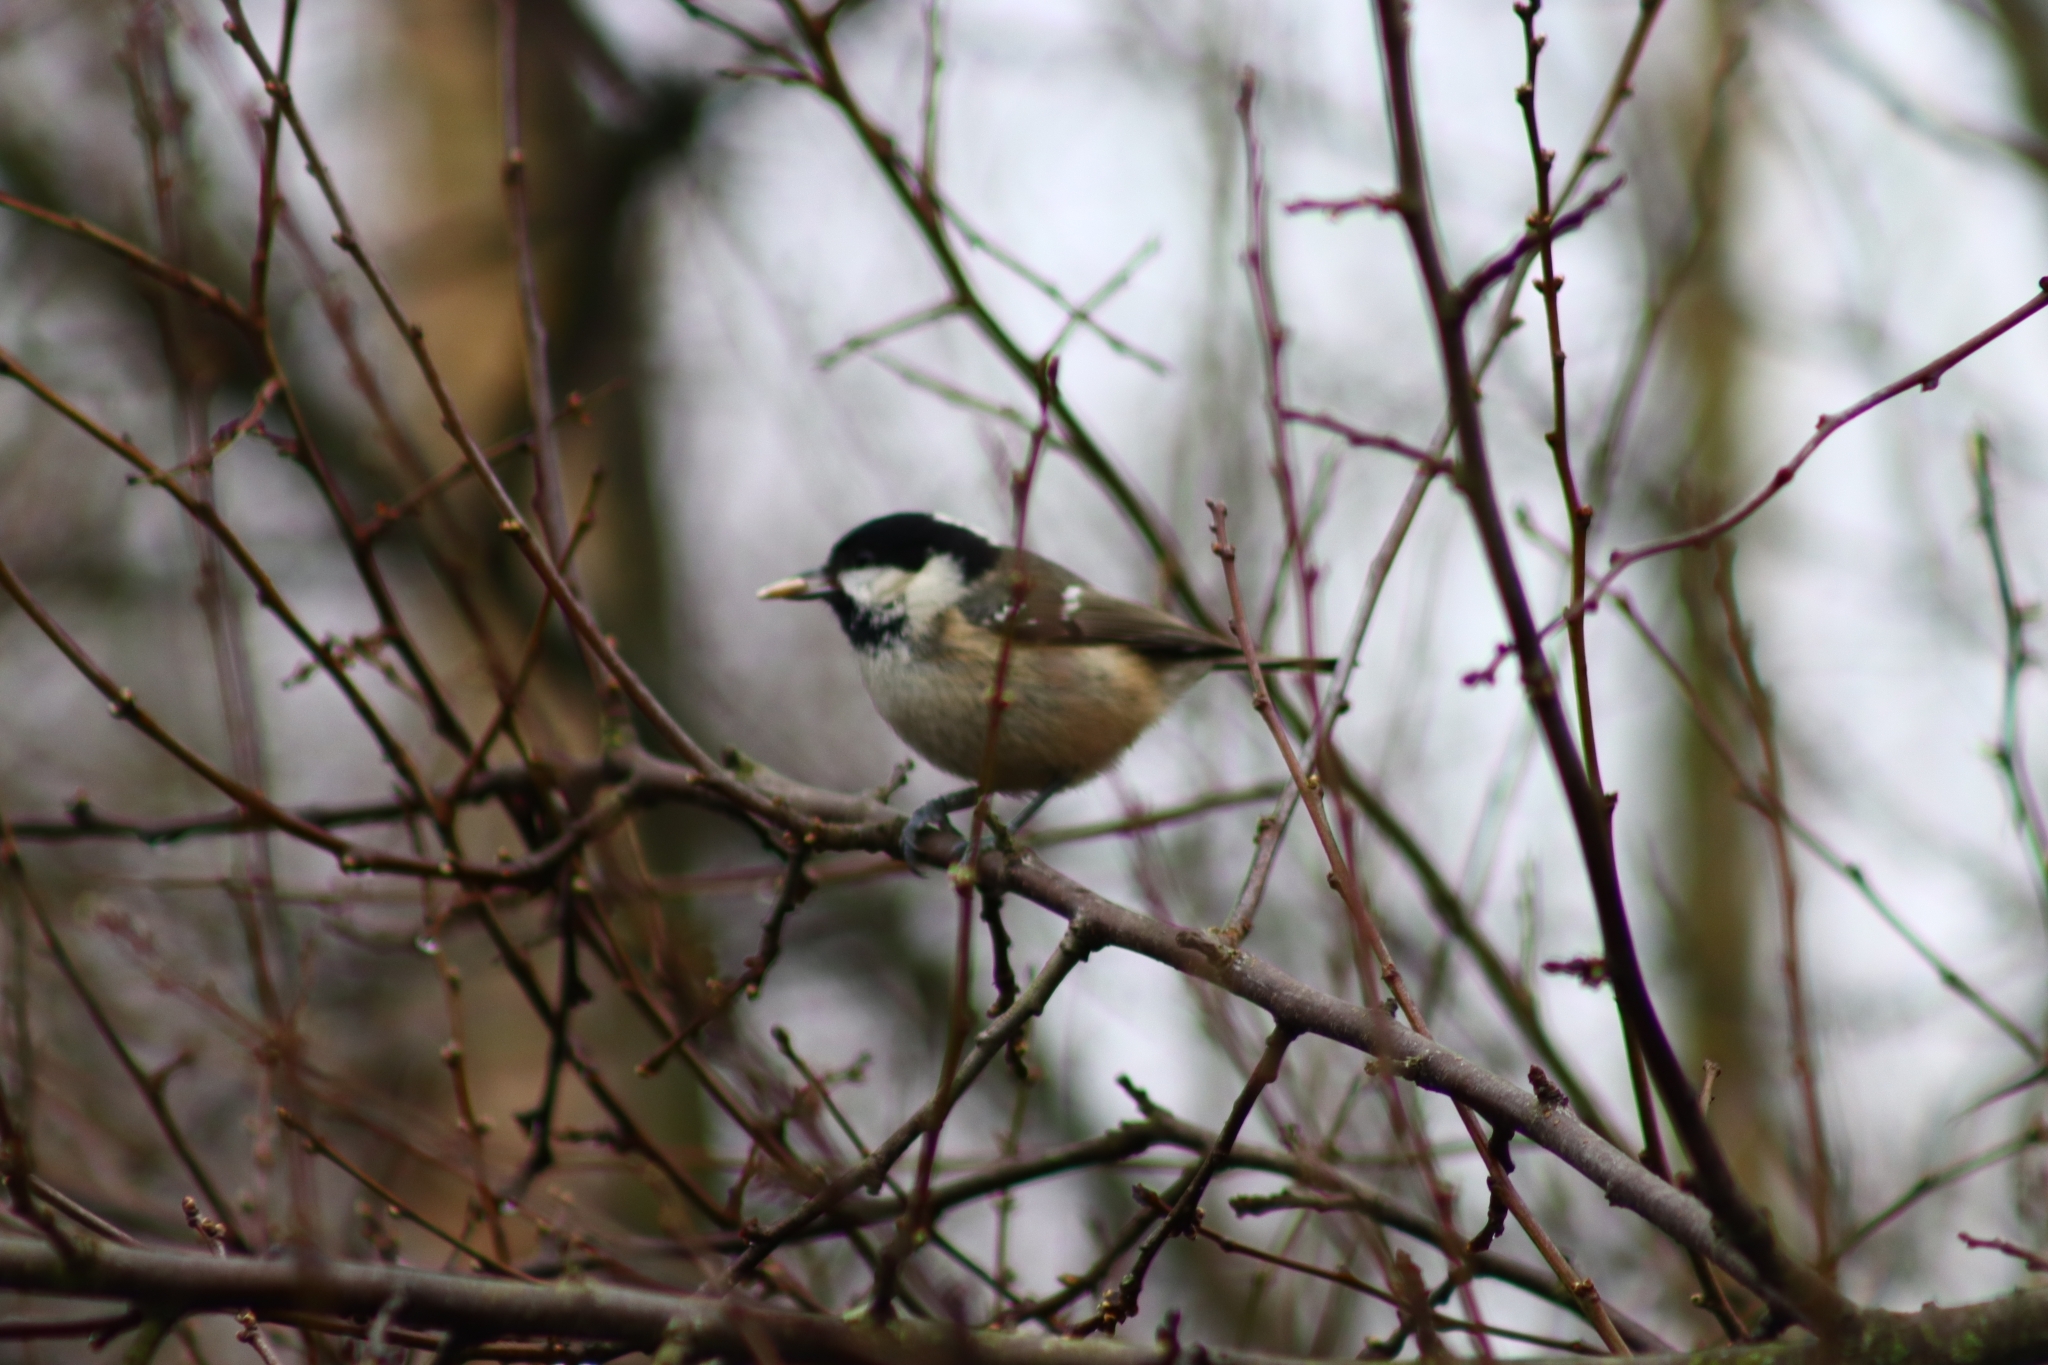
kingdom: Animalia
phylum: Chordata
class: Aves
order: Passeriformes
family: Paridae
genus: Periparus
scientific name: Periparus ater
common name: Coal tit
